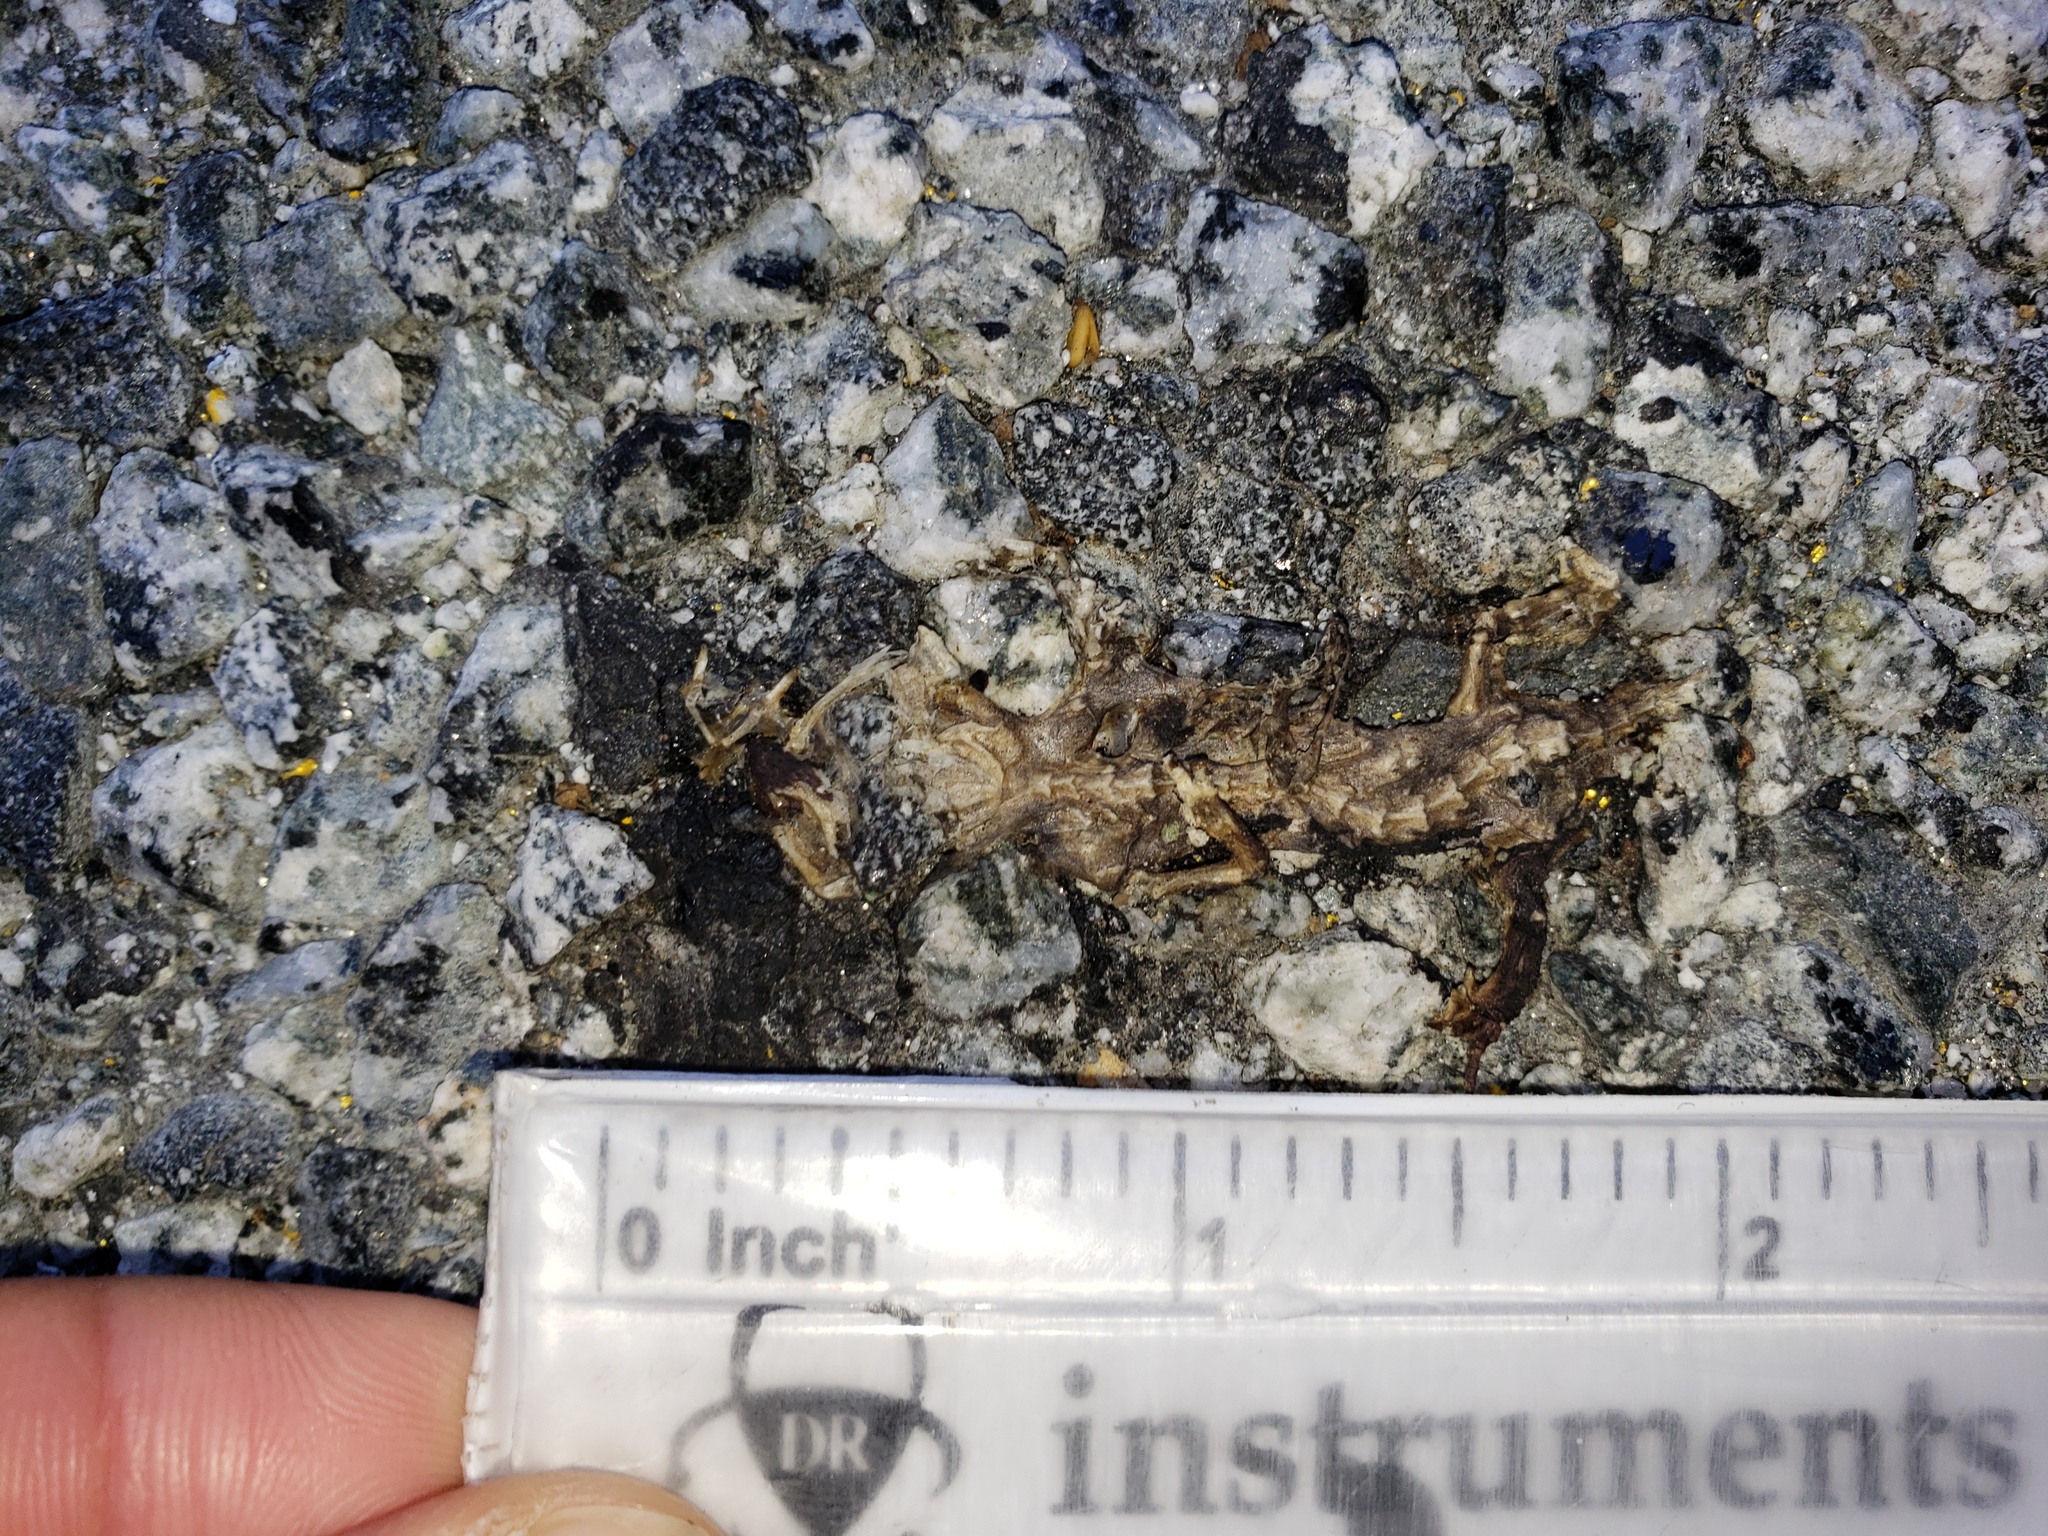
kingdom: Animalia
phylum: Chordata
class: Amphibia
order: Caudata
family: Salamandridae
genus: Taricha
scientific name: Taricha
